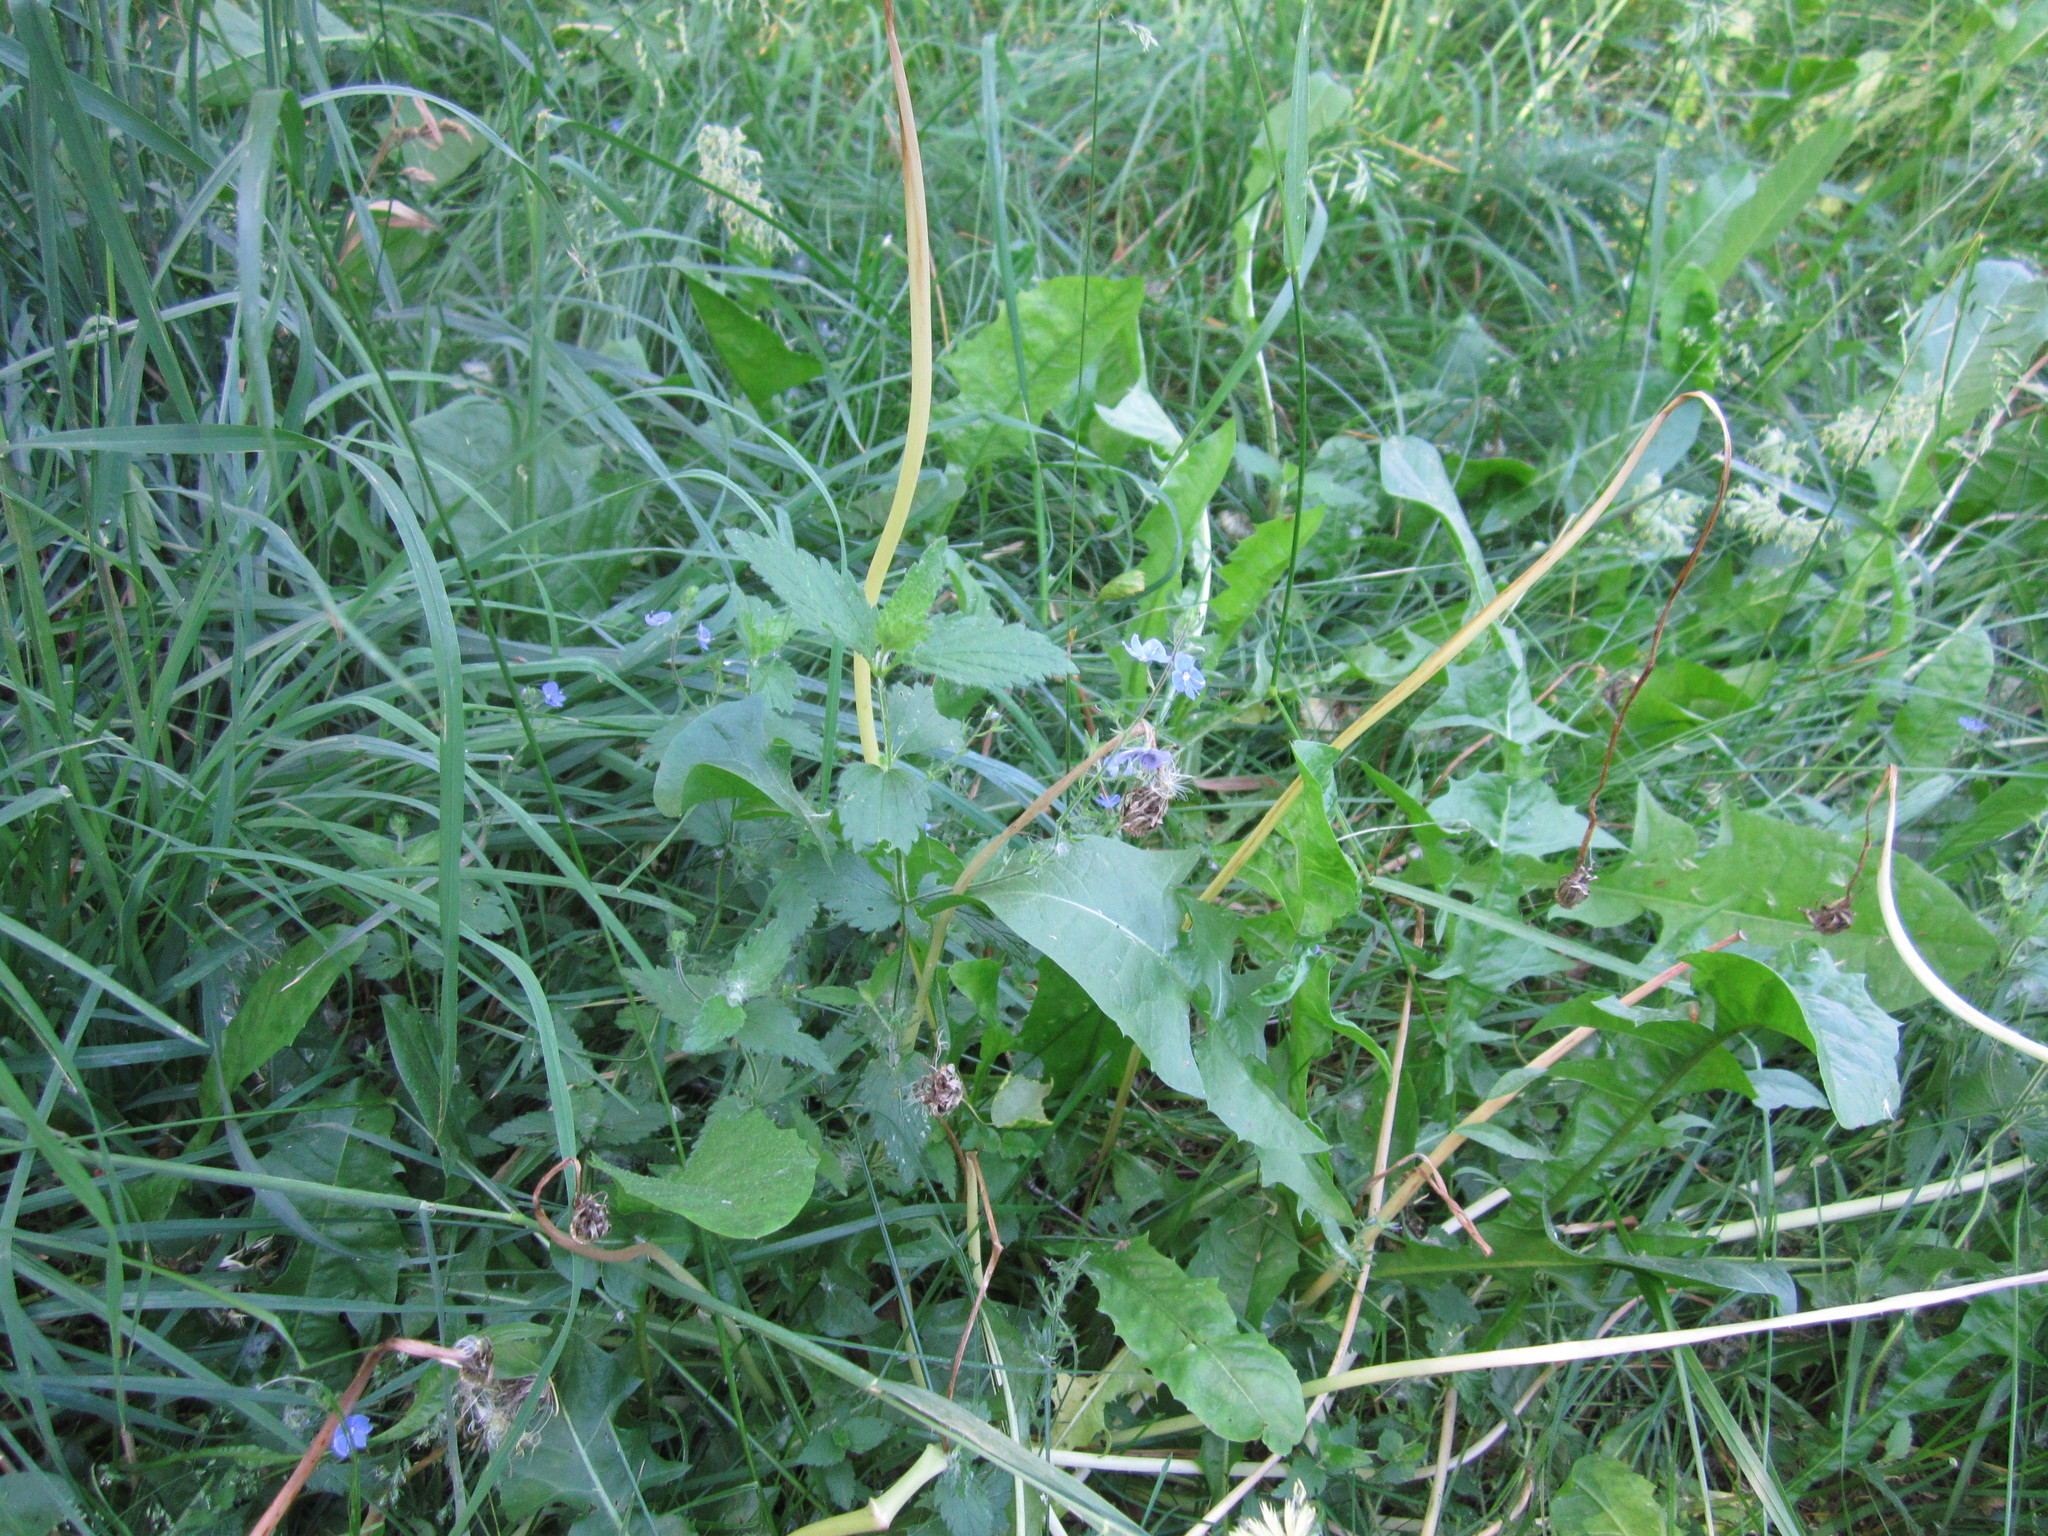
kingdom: Plantae
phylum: Tracheophyta
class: Magnoliopsida
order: Lamiales
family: Plantaginaceae
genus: Veronica
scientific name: Veronica chamaedrys
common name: Germander speedwell
